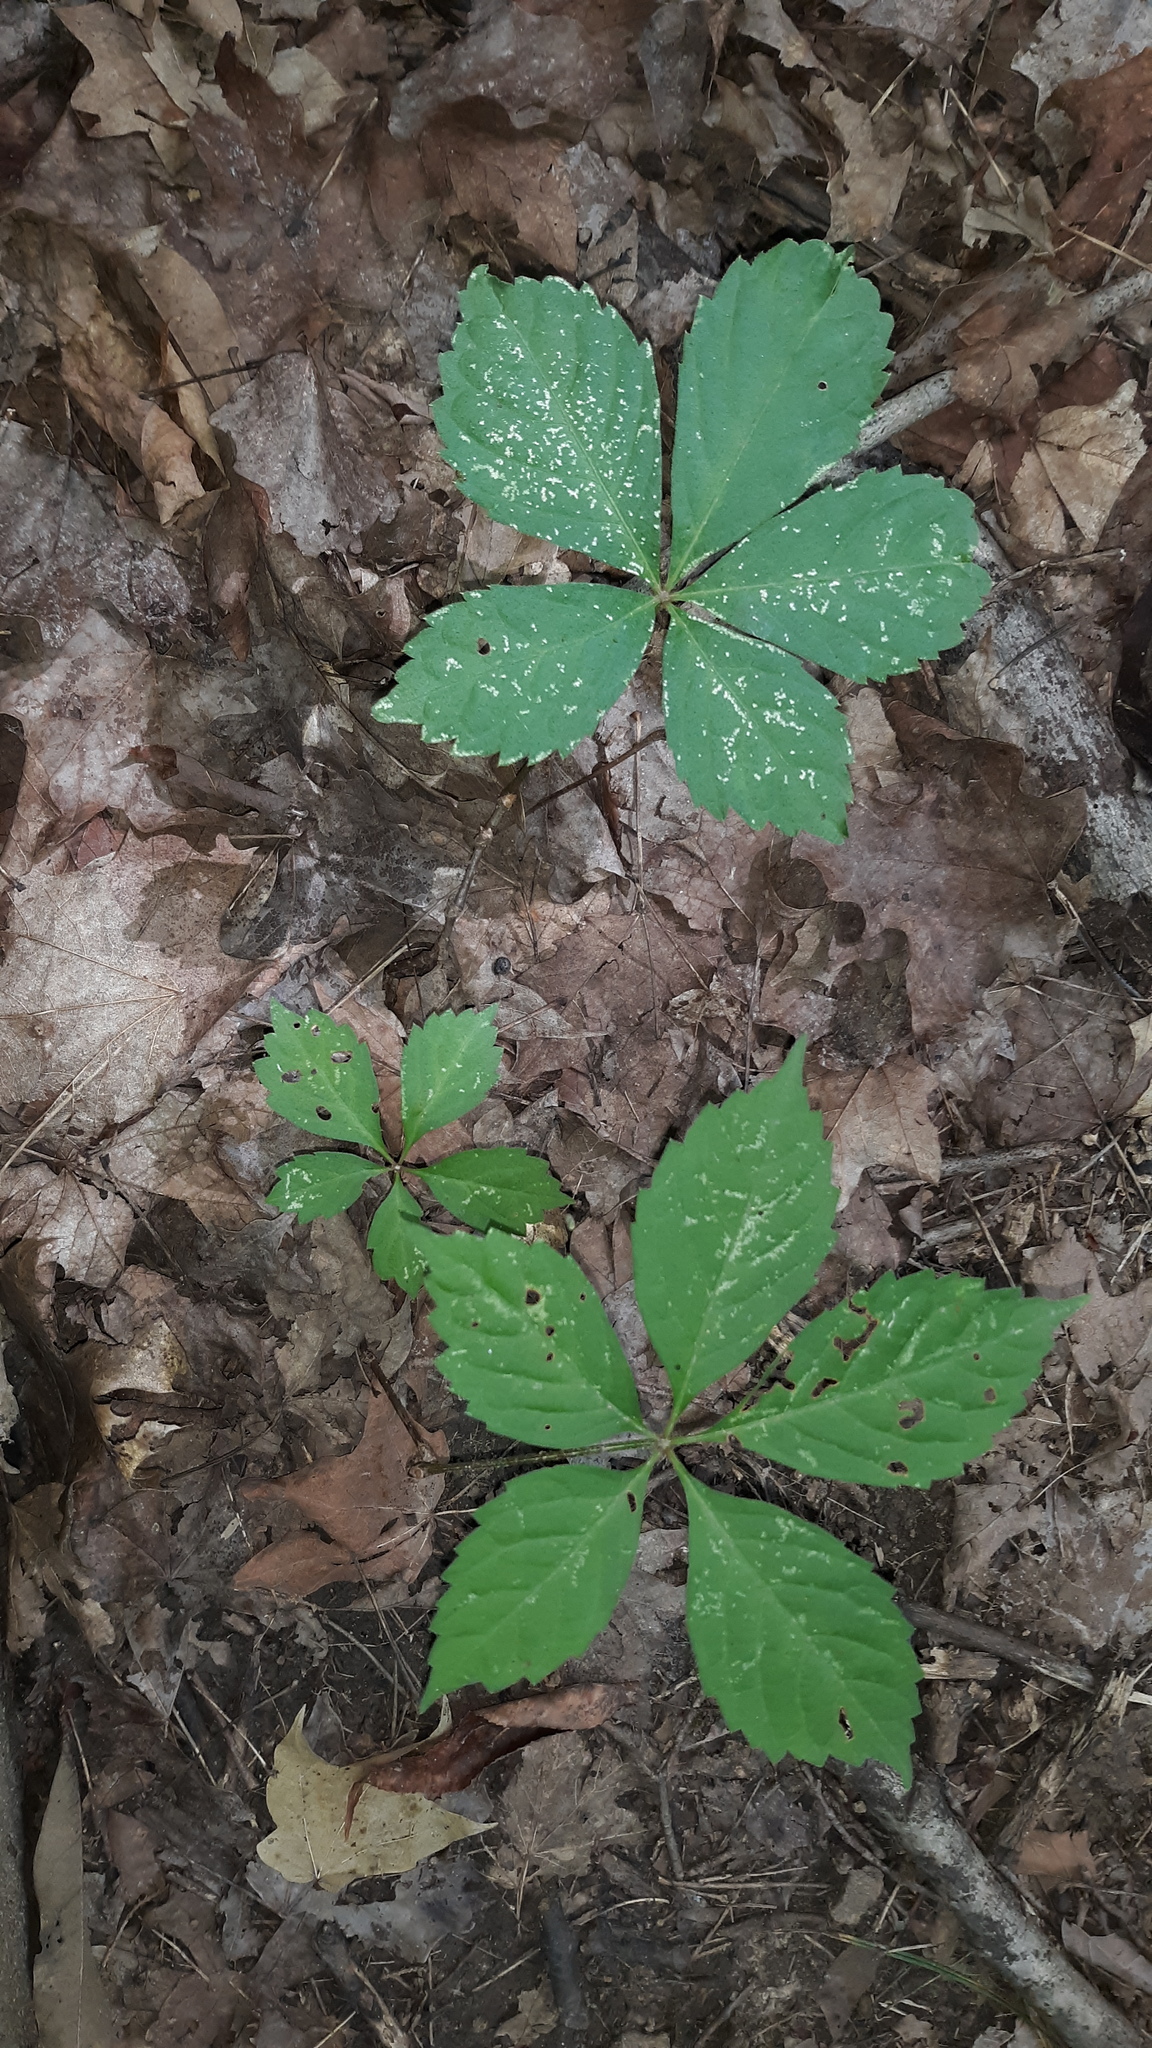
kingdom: Plantae
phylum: Tracheophyta
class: Magnoliopsida
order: Vitales
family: Vitaceae
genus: Parthenocissus
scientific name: Parthenocissus quinquefolia
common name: Virginia-creeper
